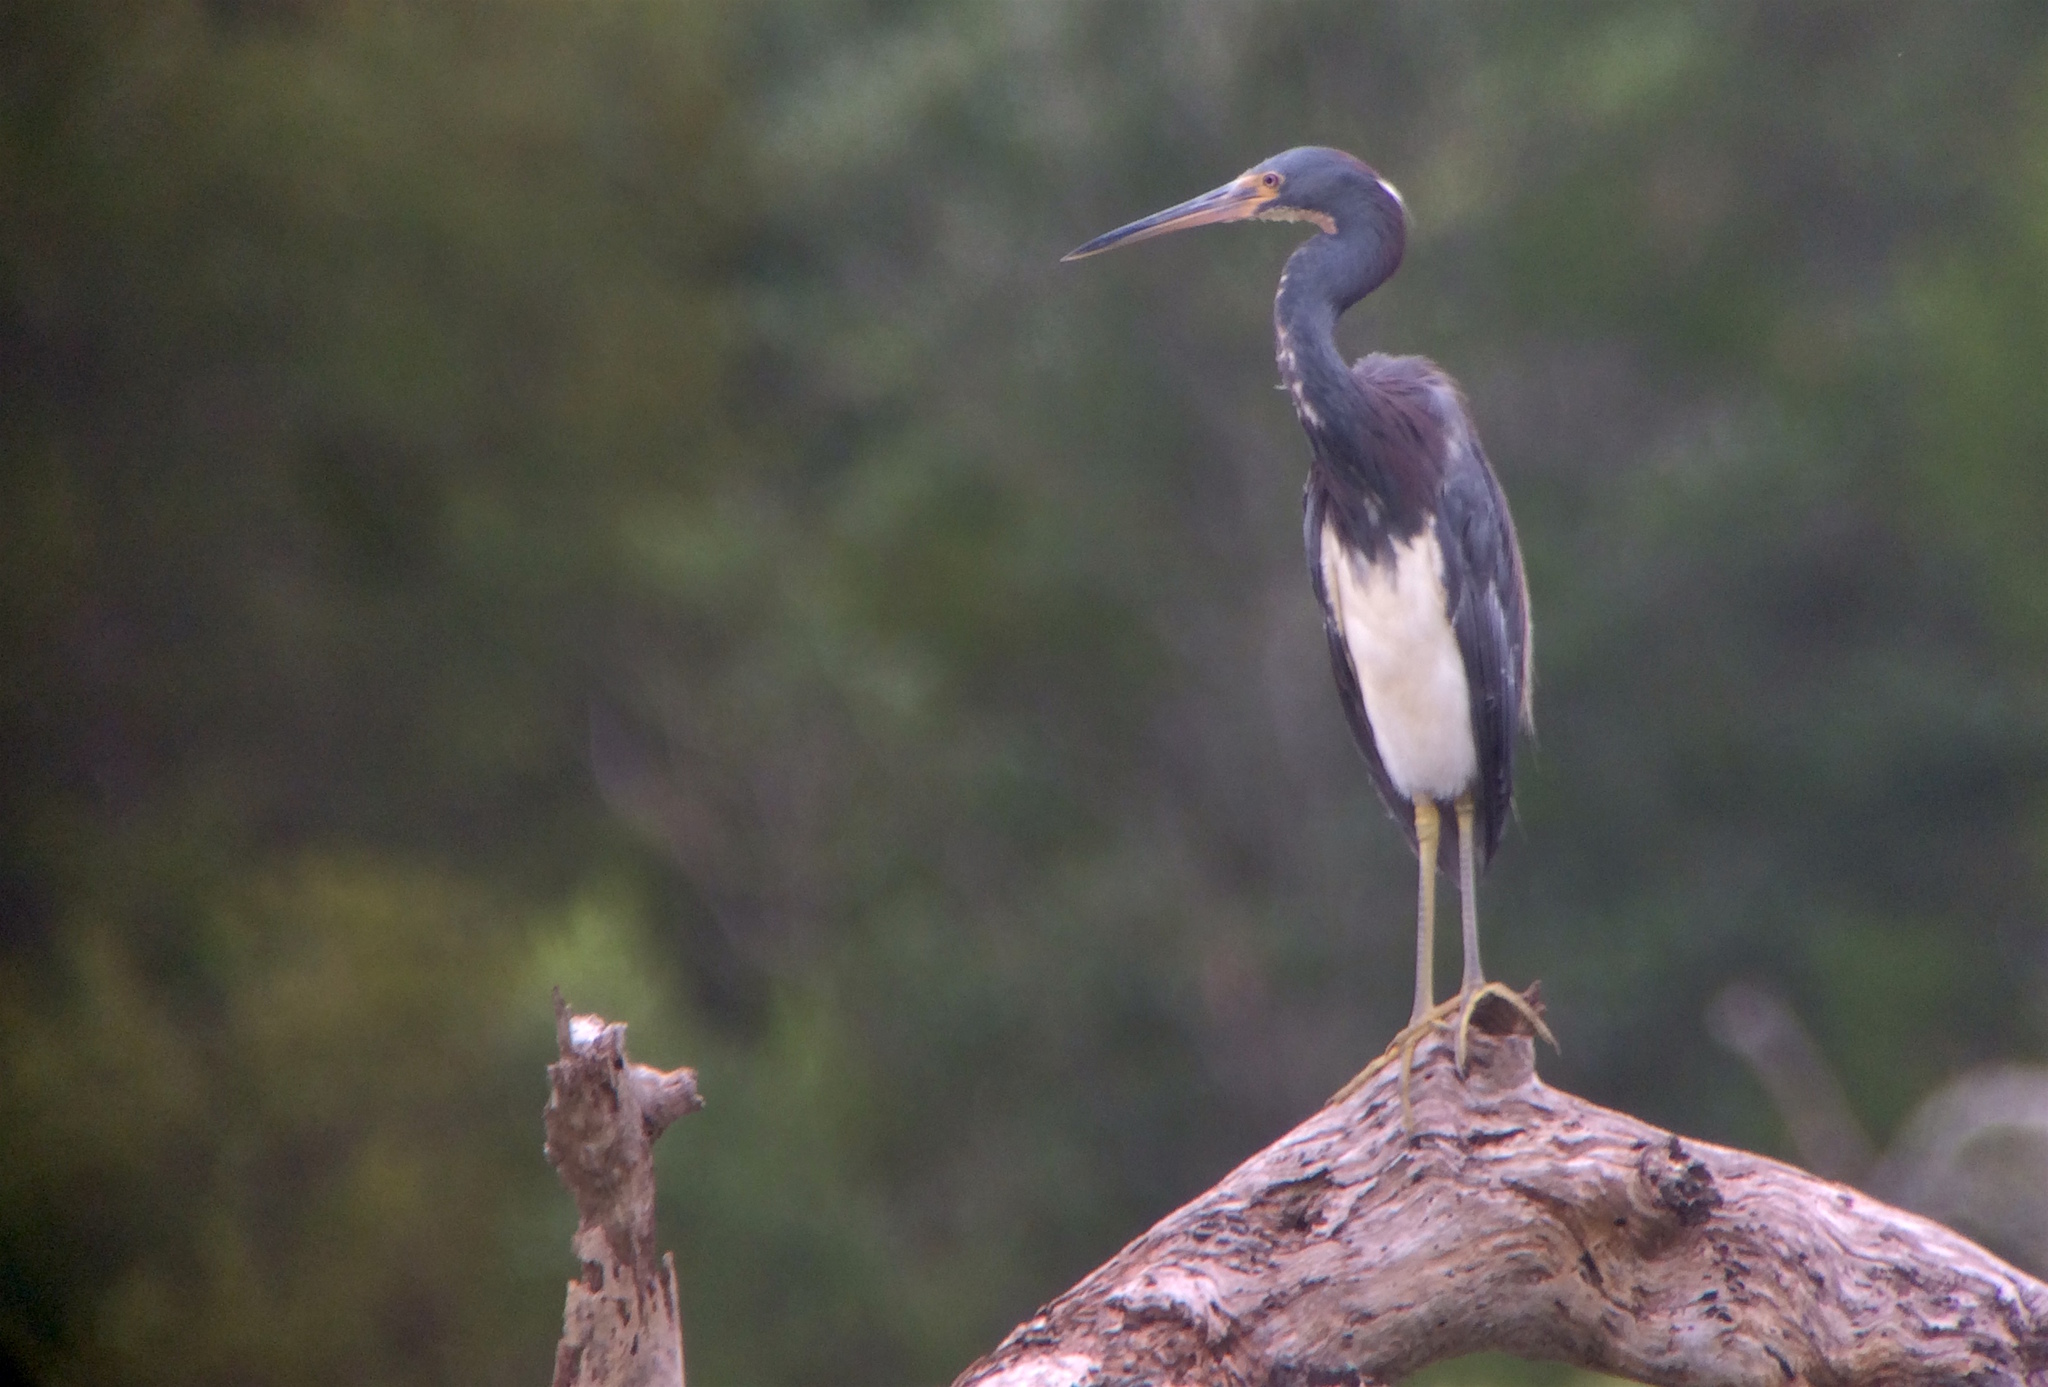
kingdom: Animalia
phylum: Chordata
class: Aves
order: Pelecaniformes
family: Ardeidae
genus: Egretta
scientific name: Egretta tricolor
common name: Tricolored heron
